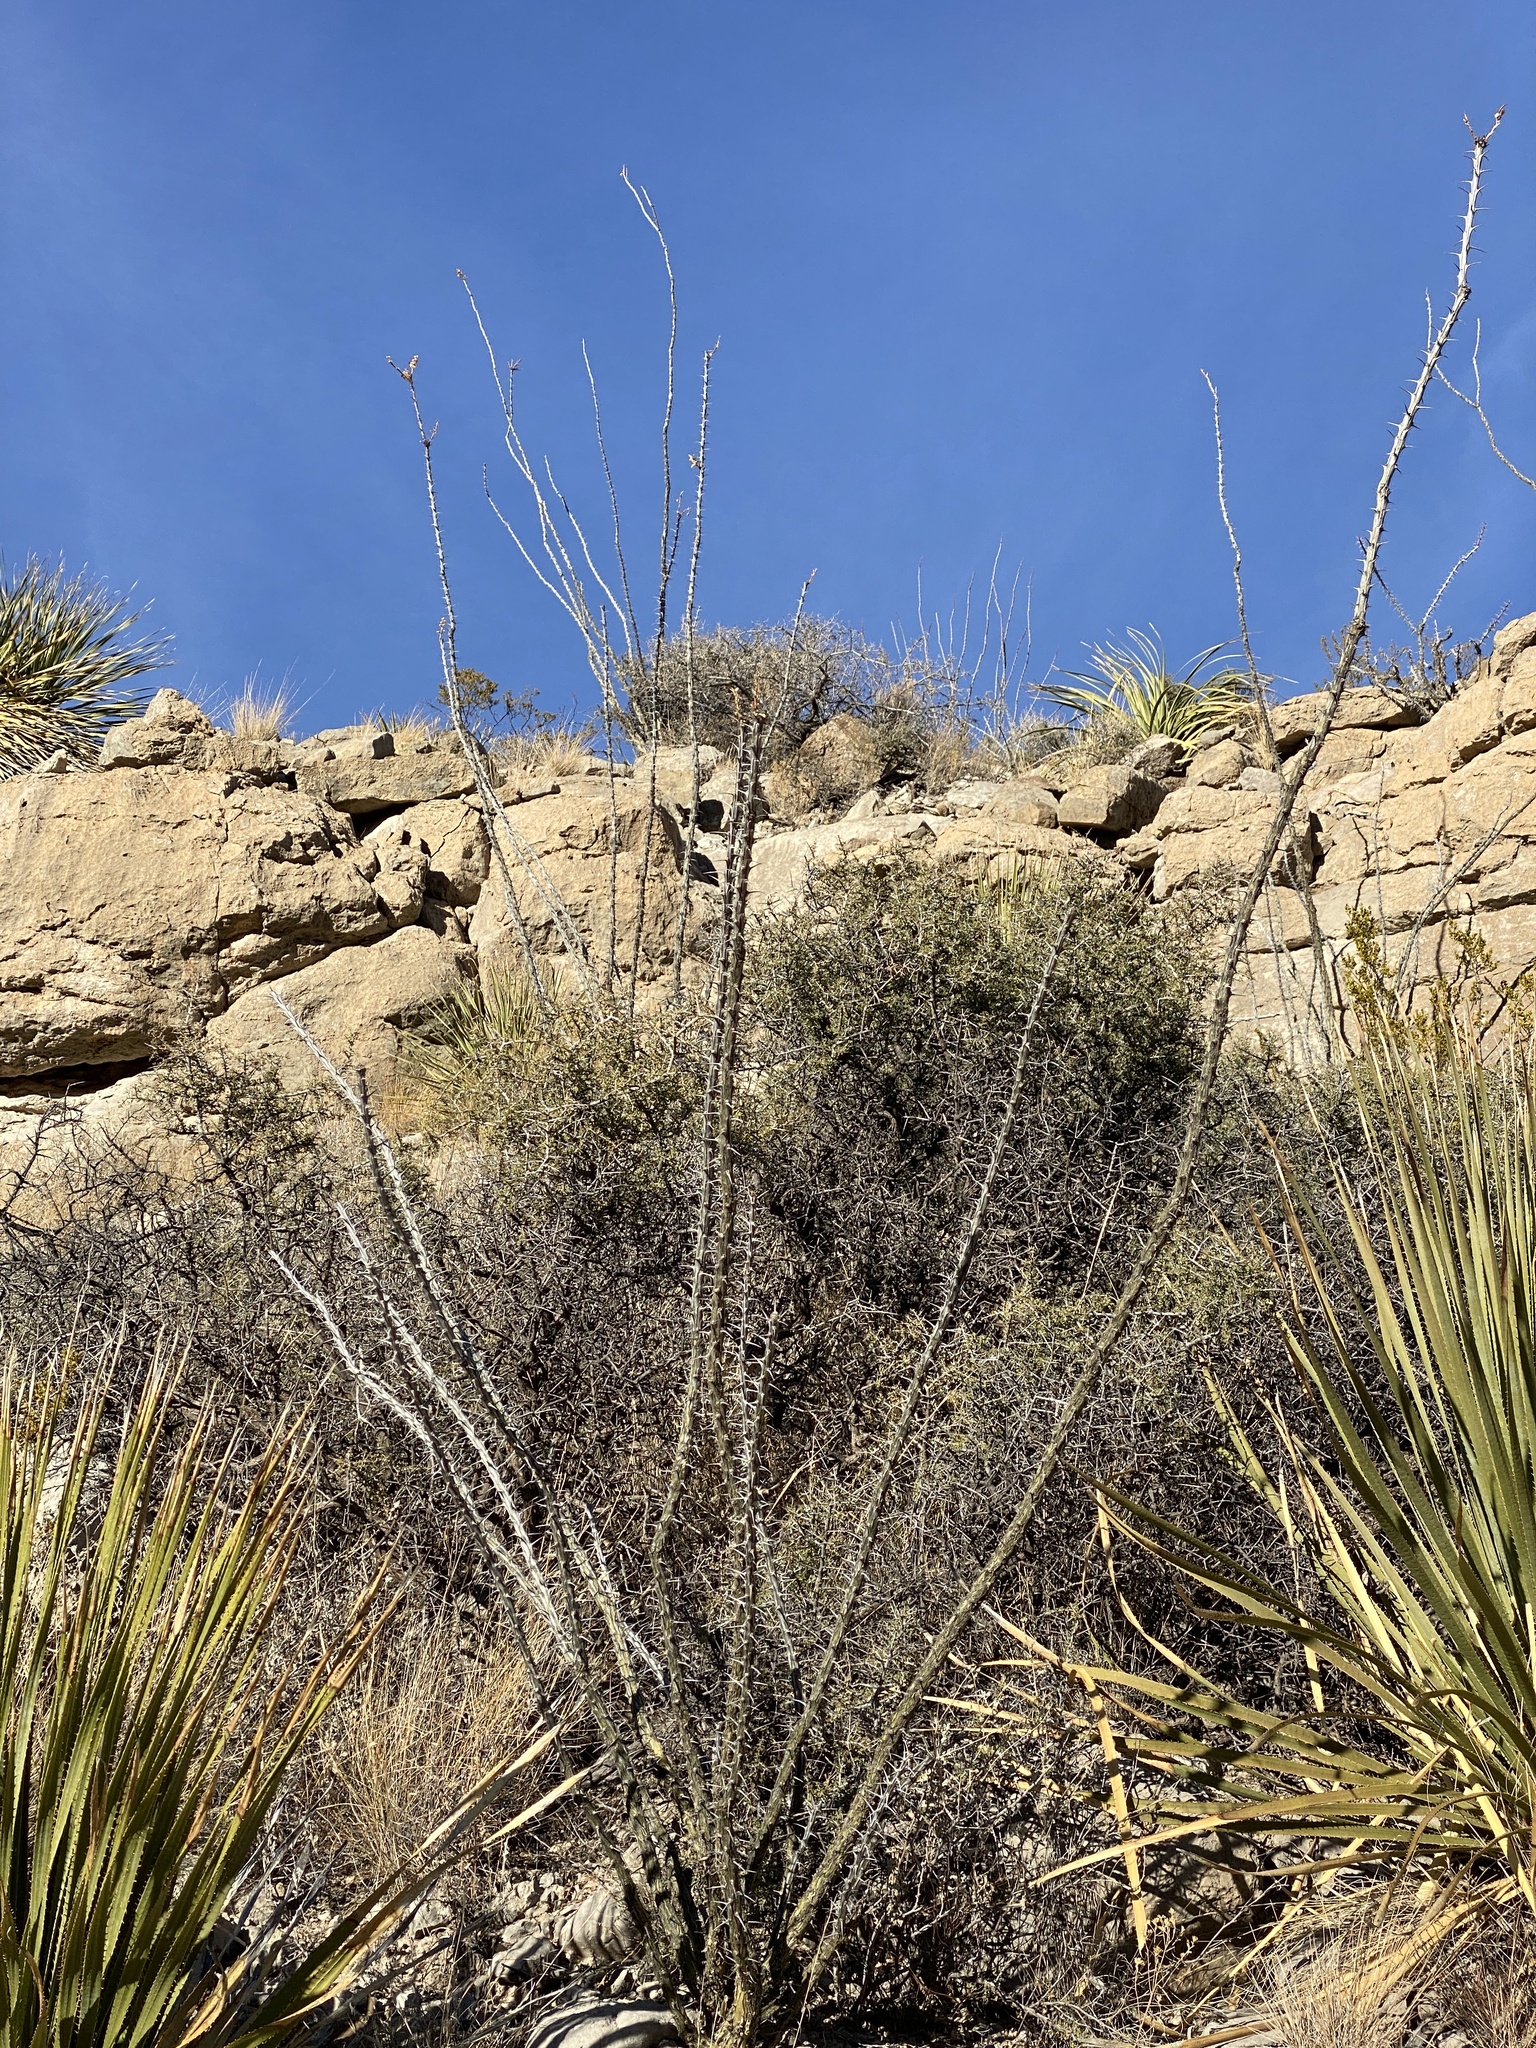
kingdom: Plantae
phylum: Tracheophyta
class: Magnoliopsida
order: Ericales
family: Fouquieriaceae
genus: Fouquieria
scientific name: Fouquieria splendens
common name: Vine-cactus
